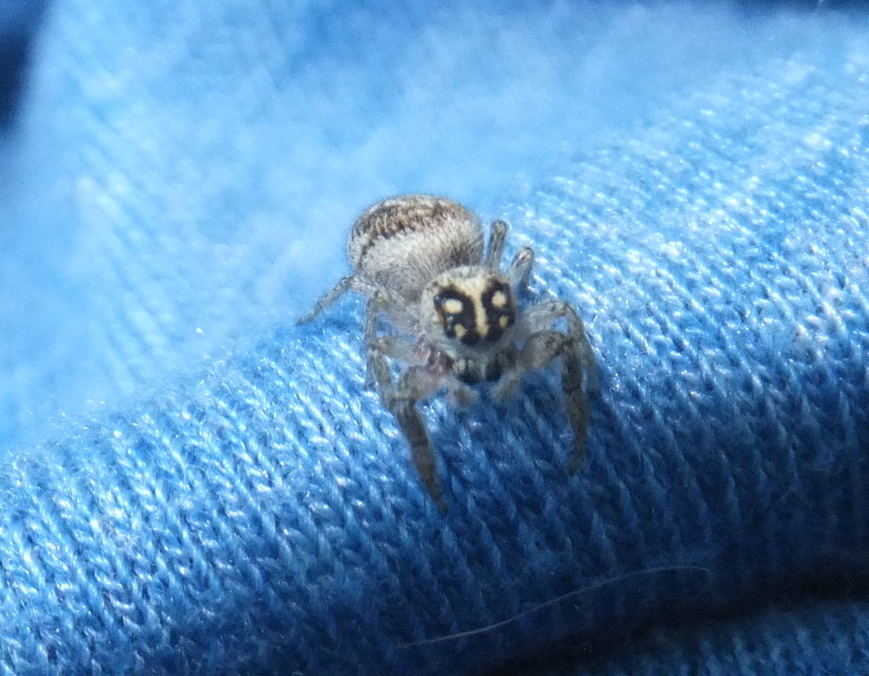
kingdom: Animalia
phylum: Arthropoda
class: Arachnida
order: Araneae
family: Salticidae
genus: Macaroeris
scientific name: Macaroeris nidicolens
